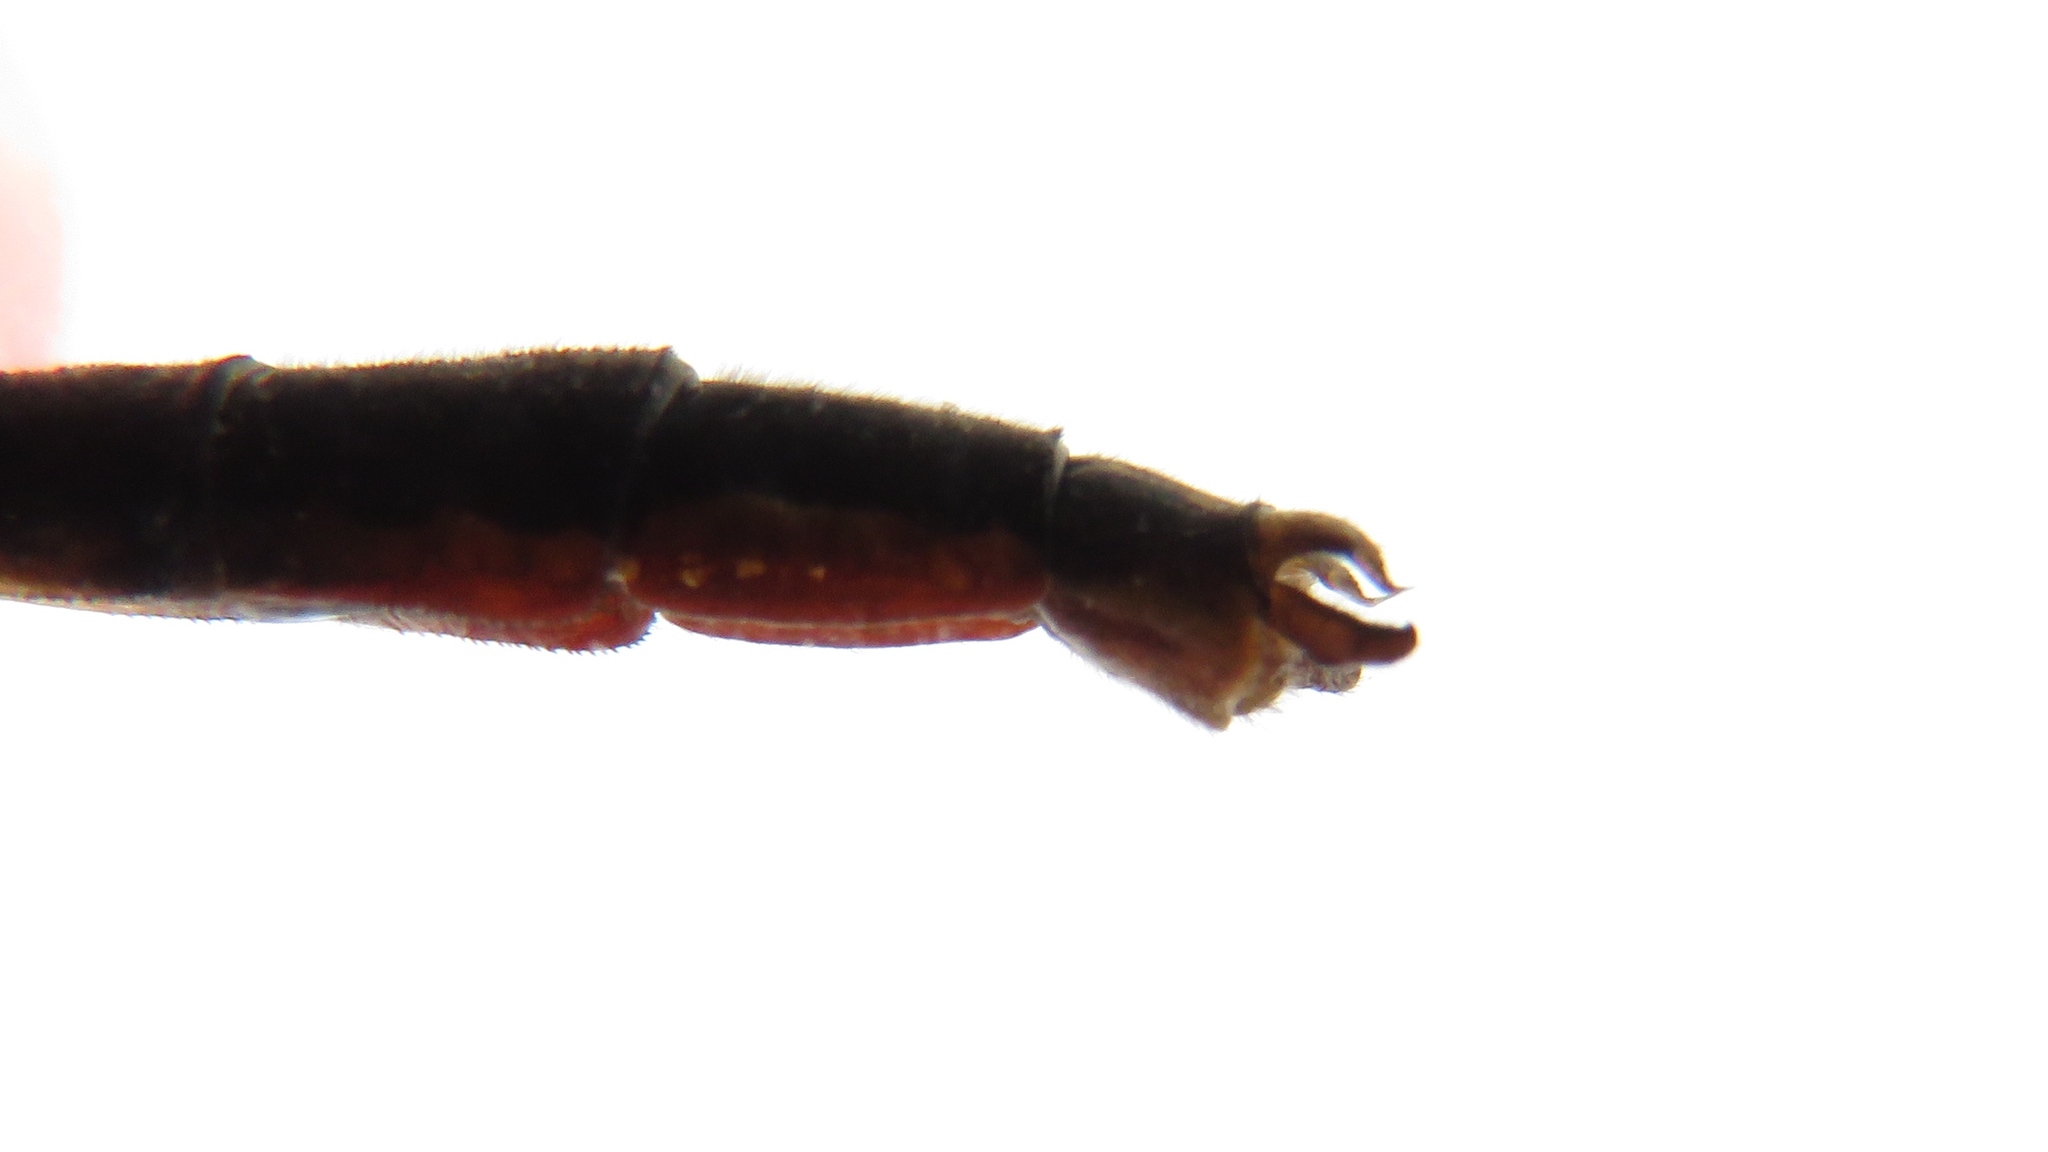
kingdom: Animalia
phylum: Arthropoda
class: Insecta
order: Odonata
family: Gomphidae
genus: Arigomphus
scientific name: Arigomphus furcifer
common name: Lilypad clubtail
